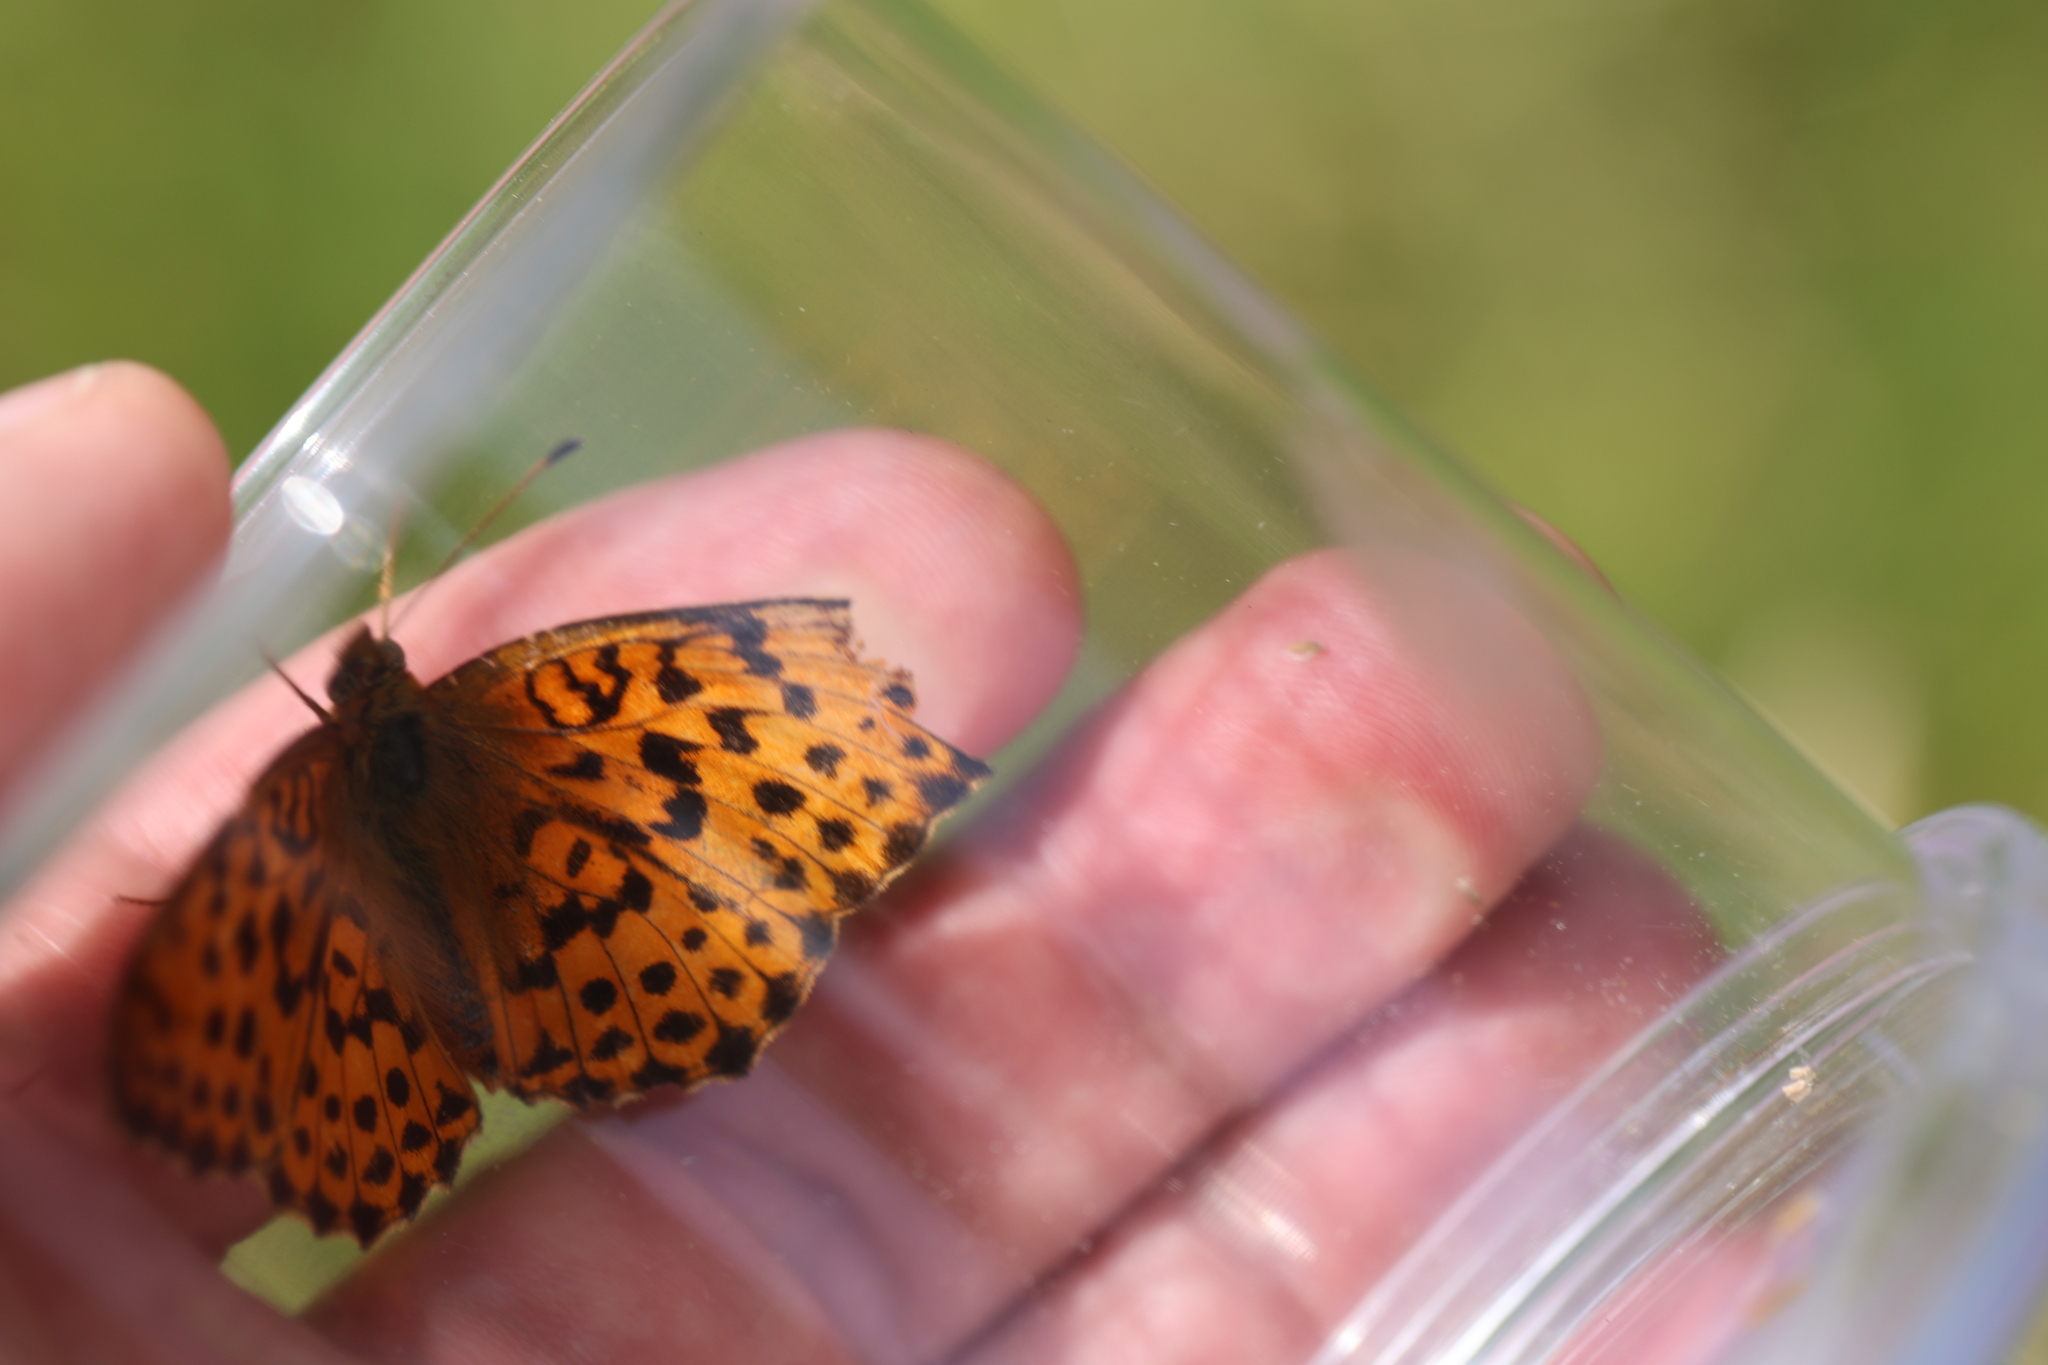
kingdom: Animalia
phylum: Arthropoda
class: Insecta
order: Lepidoptera
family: Nymphalidae
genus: Brenthis
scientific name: Brenthis daphne
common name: Marbled fritillary
